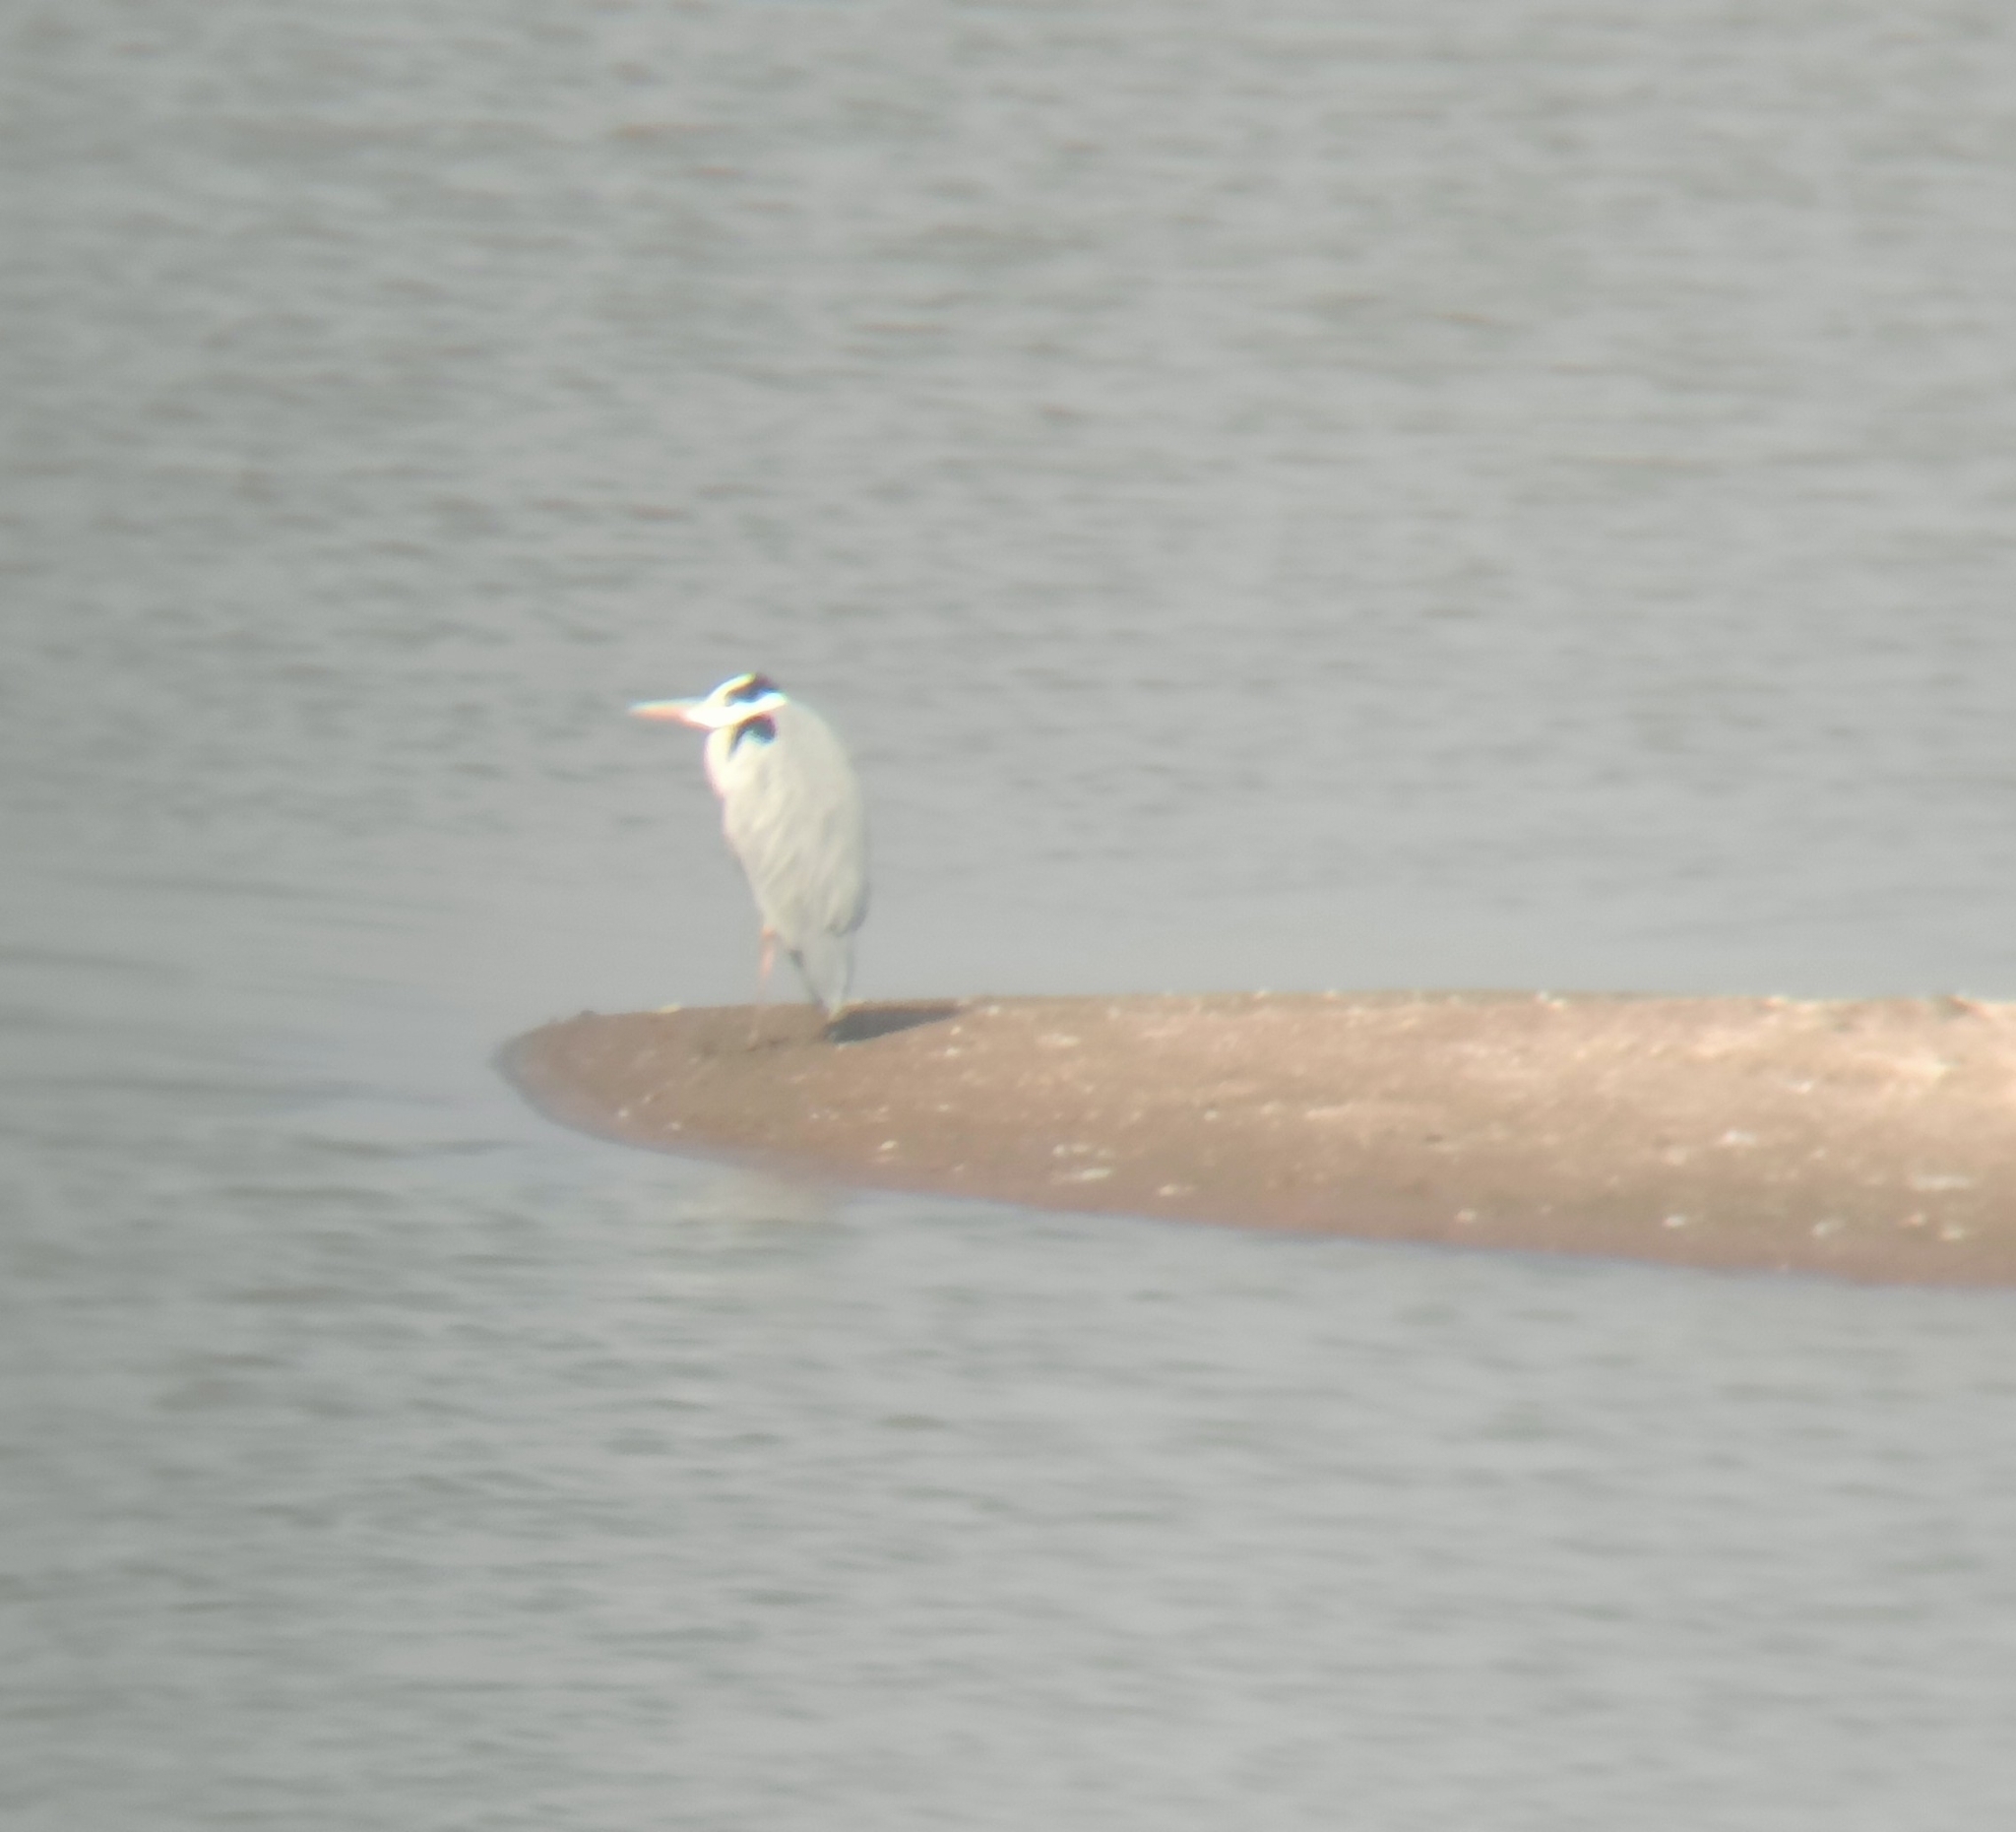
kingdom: Animalia
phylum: Chordata
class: Aves
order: Pelecaniformes
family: Ardeidae
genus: Ardea
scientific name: Ardea cinerea
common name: Grey heron
